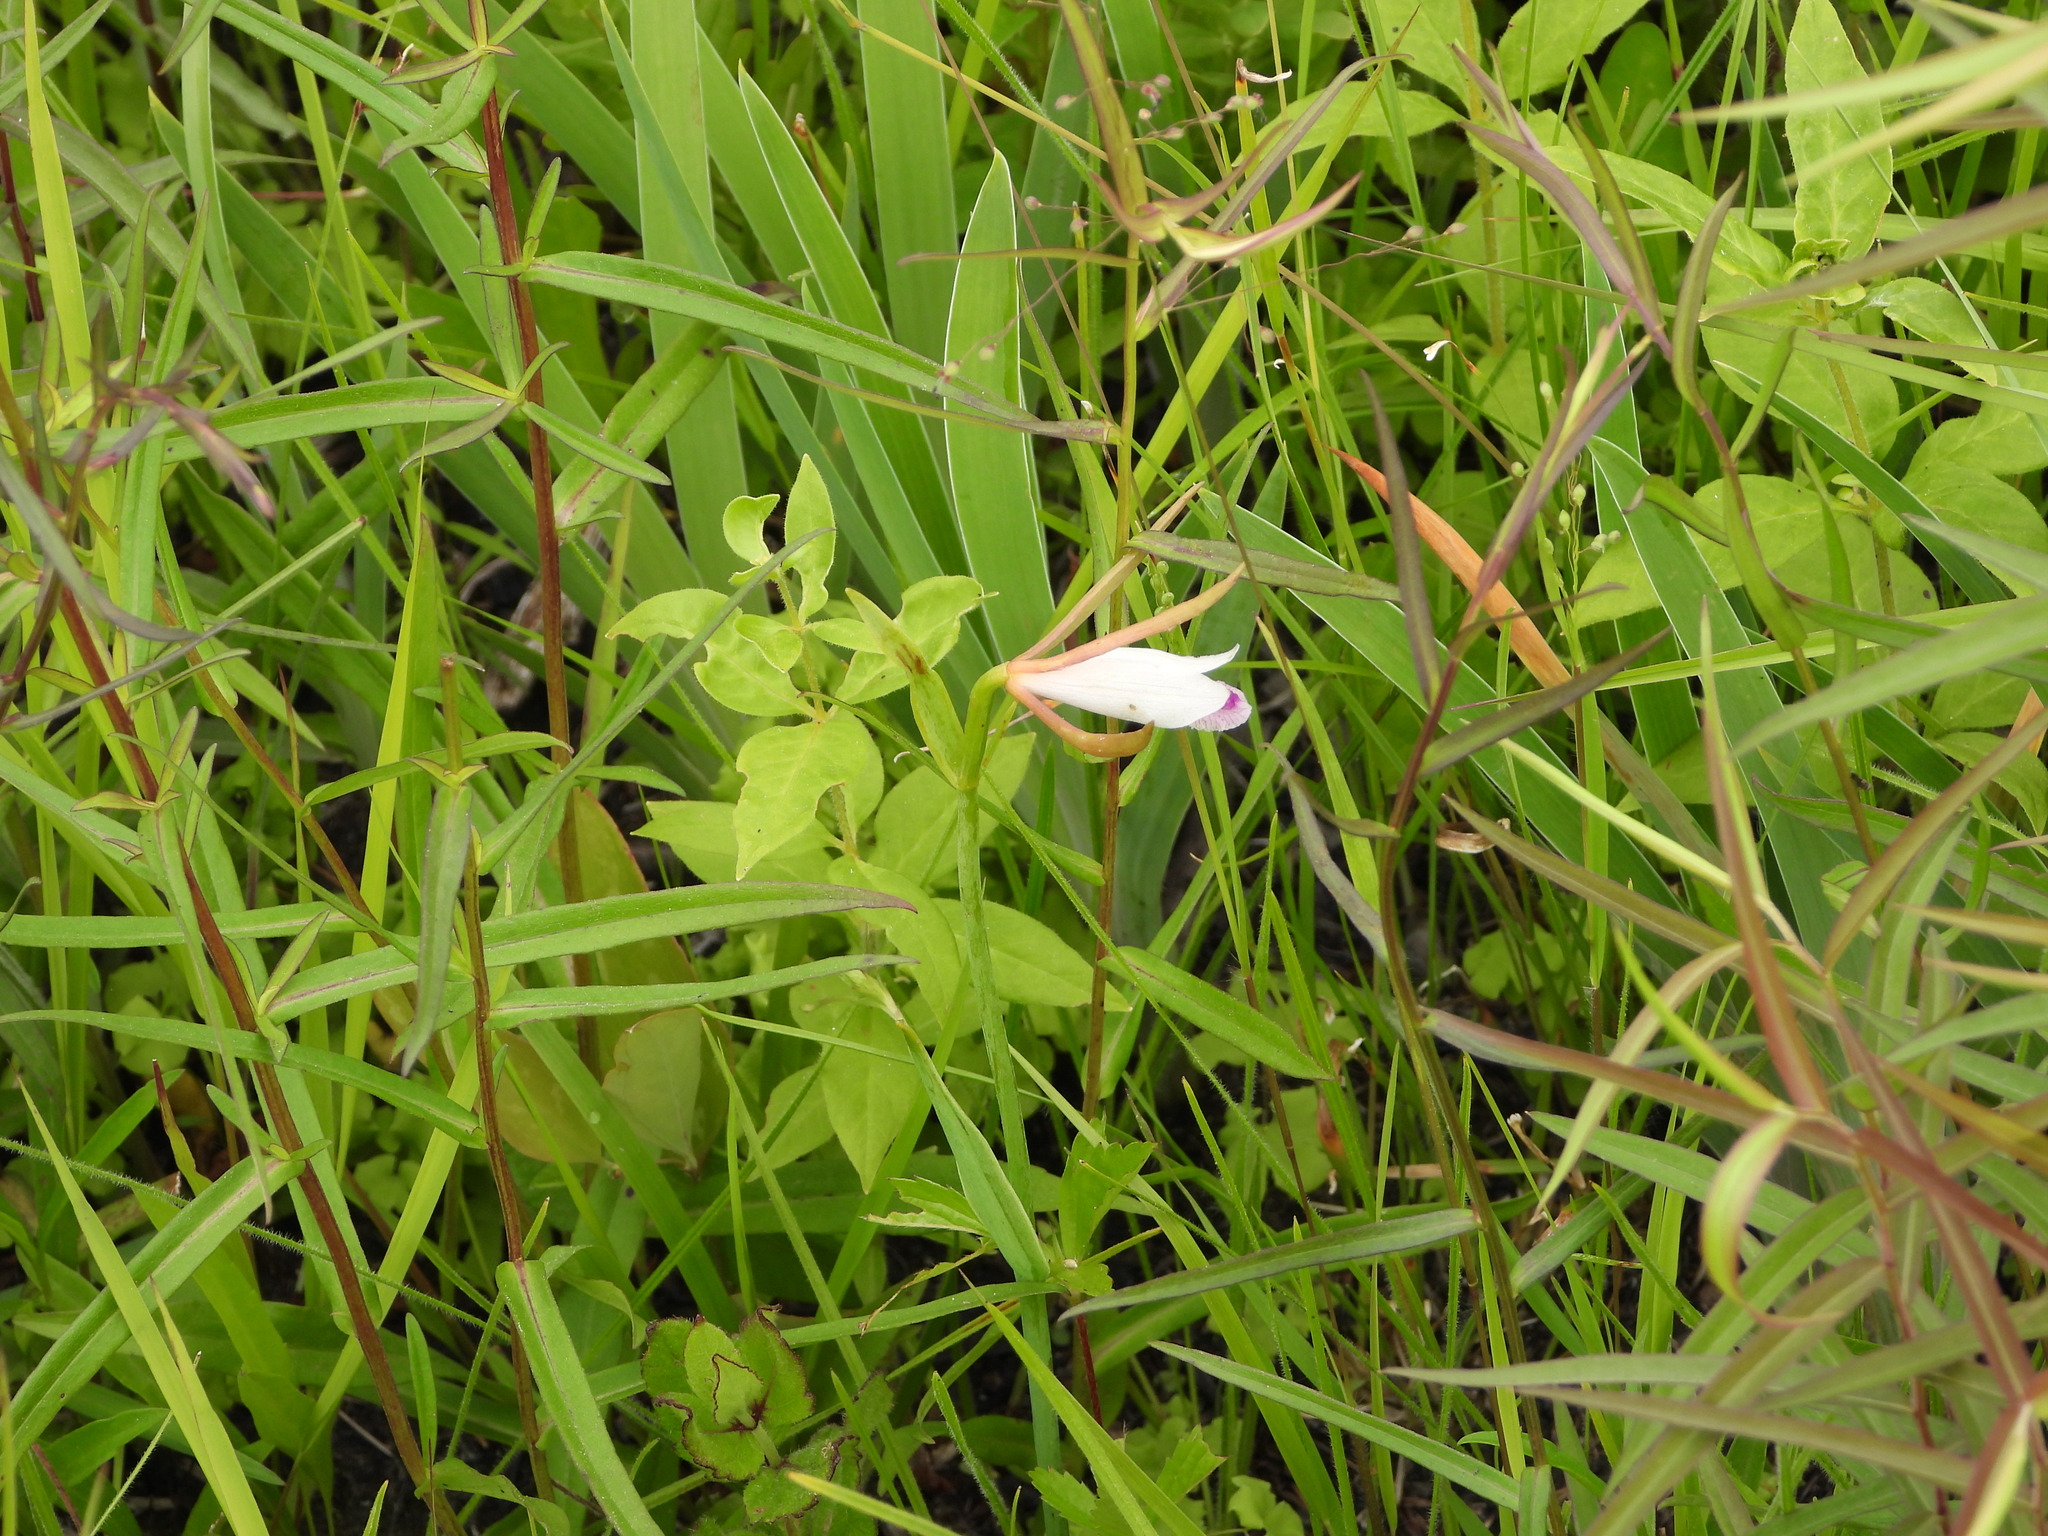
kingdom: Plantae
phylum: Tracheophyta
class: Liliopsida
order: Asparagales
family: Orchidaceae
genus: Cleistesiopsis
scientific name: Cleistesiopsis bifaria
